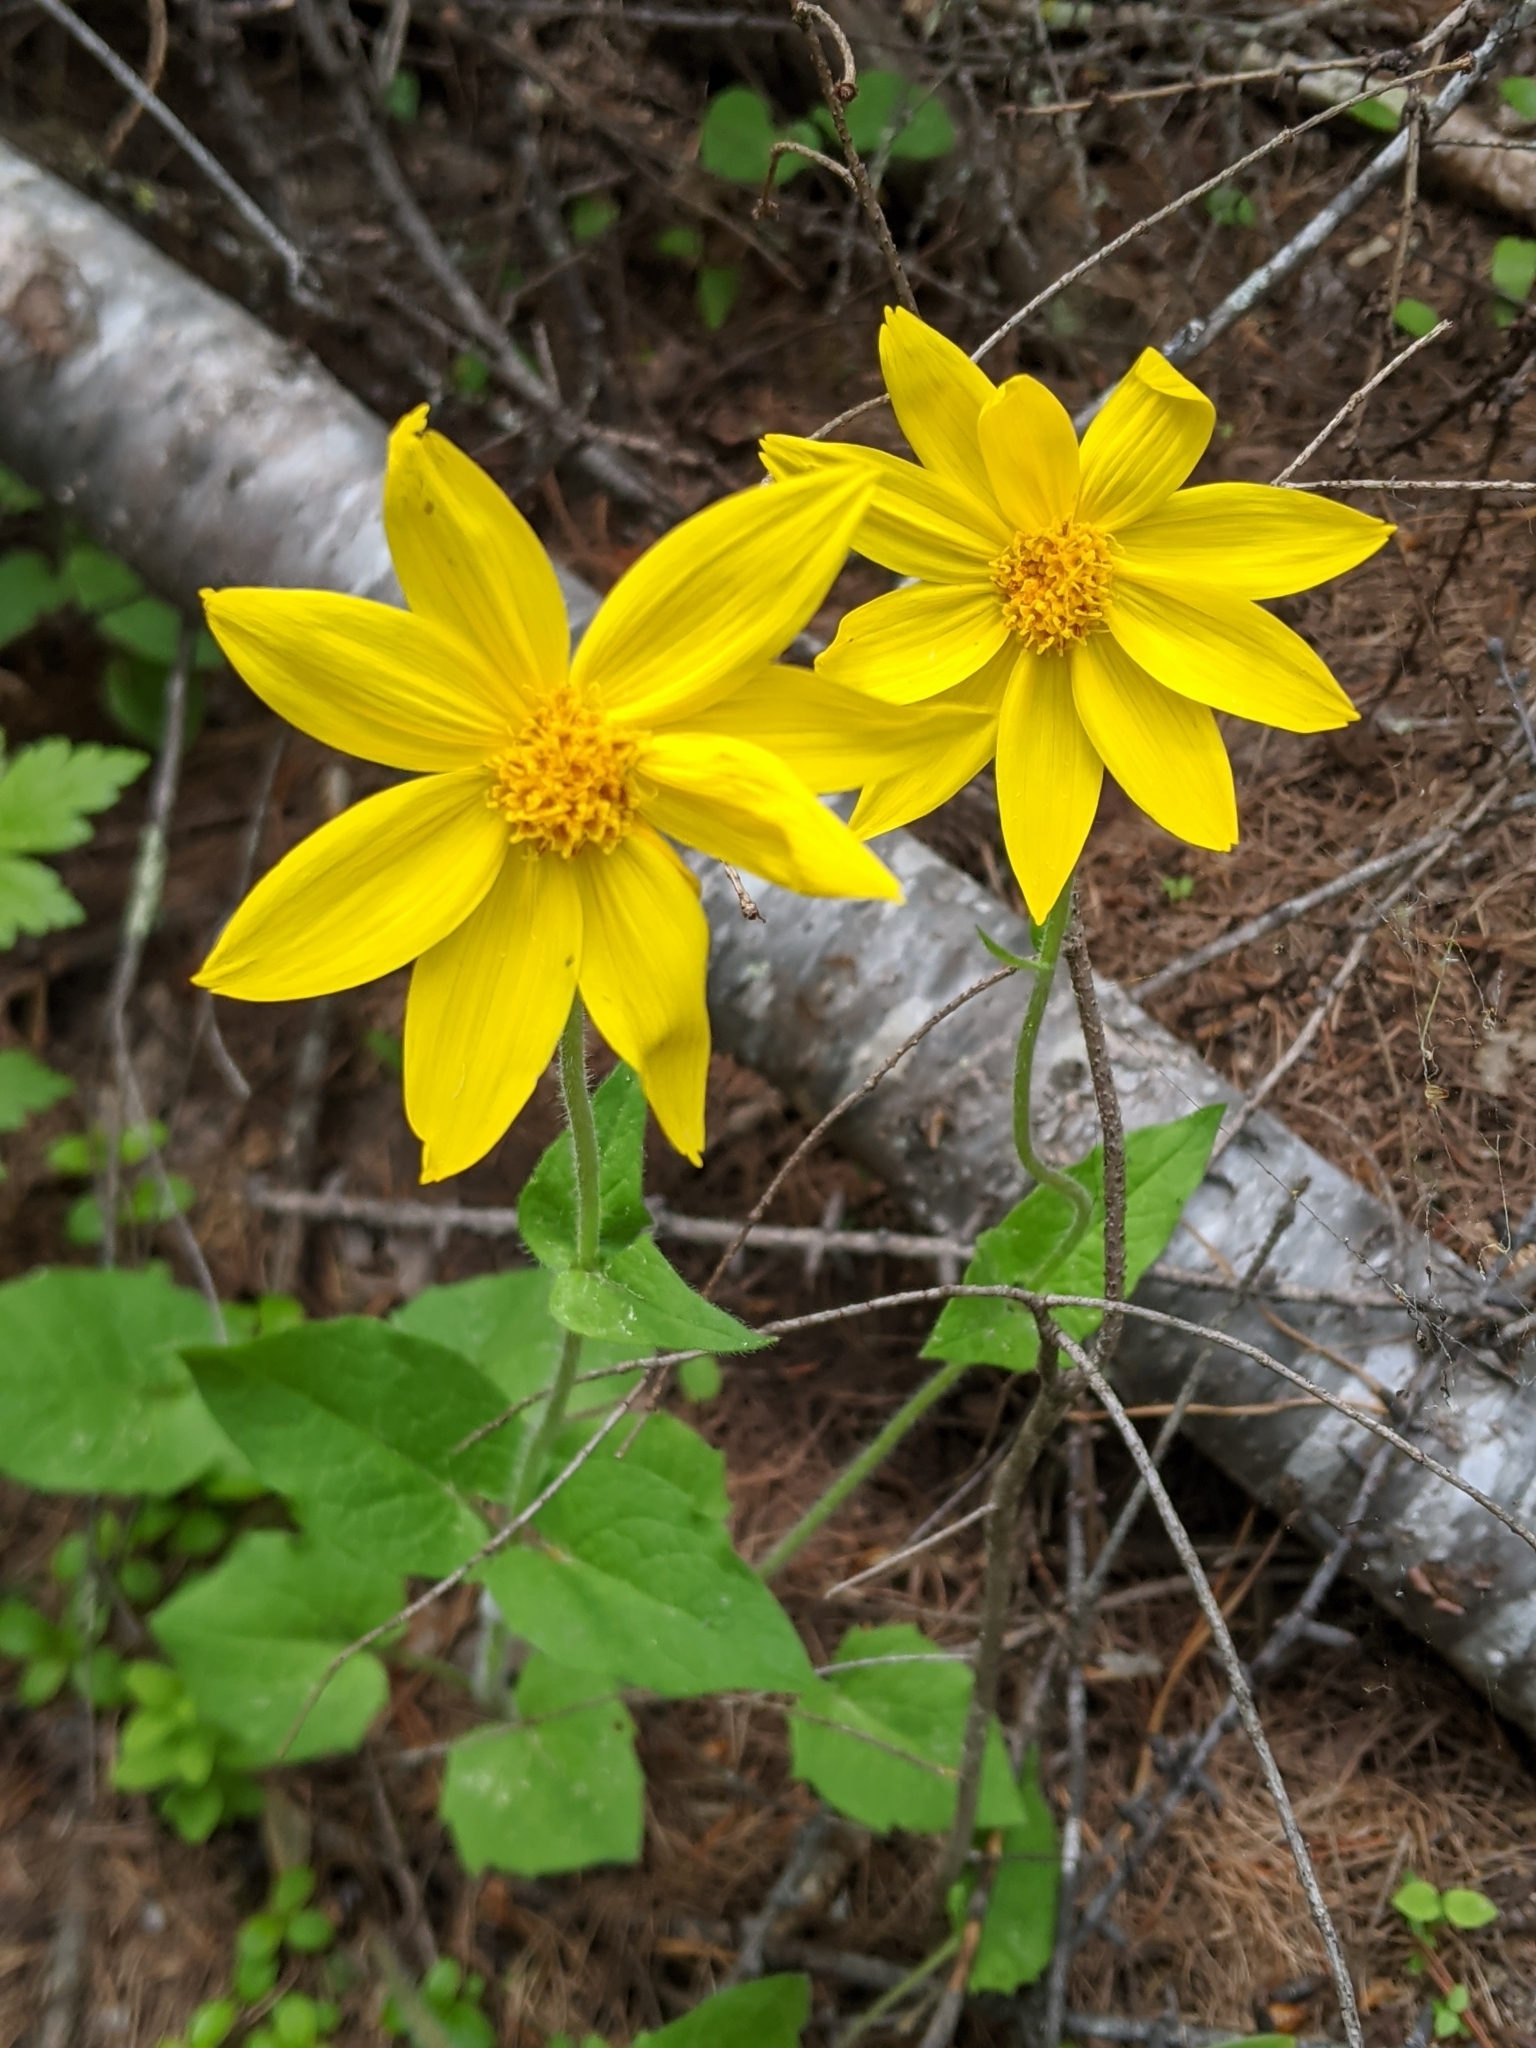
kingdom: Plantae
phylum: Tracheophyta
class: Magnoliopsida
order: Asterales
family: Asteraceae
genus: Arnica
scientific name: Arnica cordifolia
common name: Heart-leaf arnica
